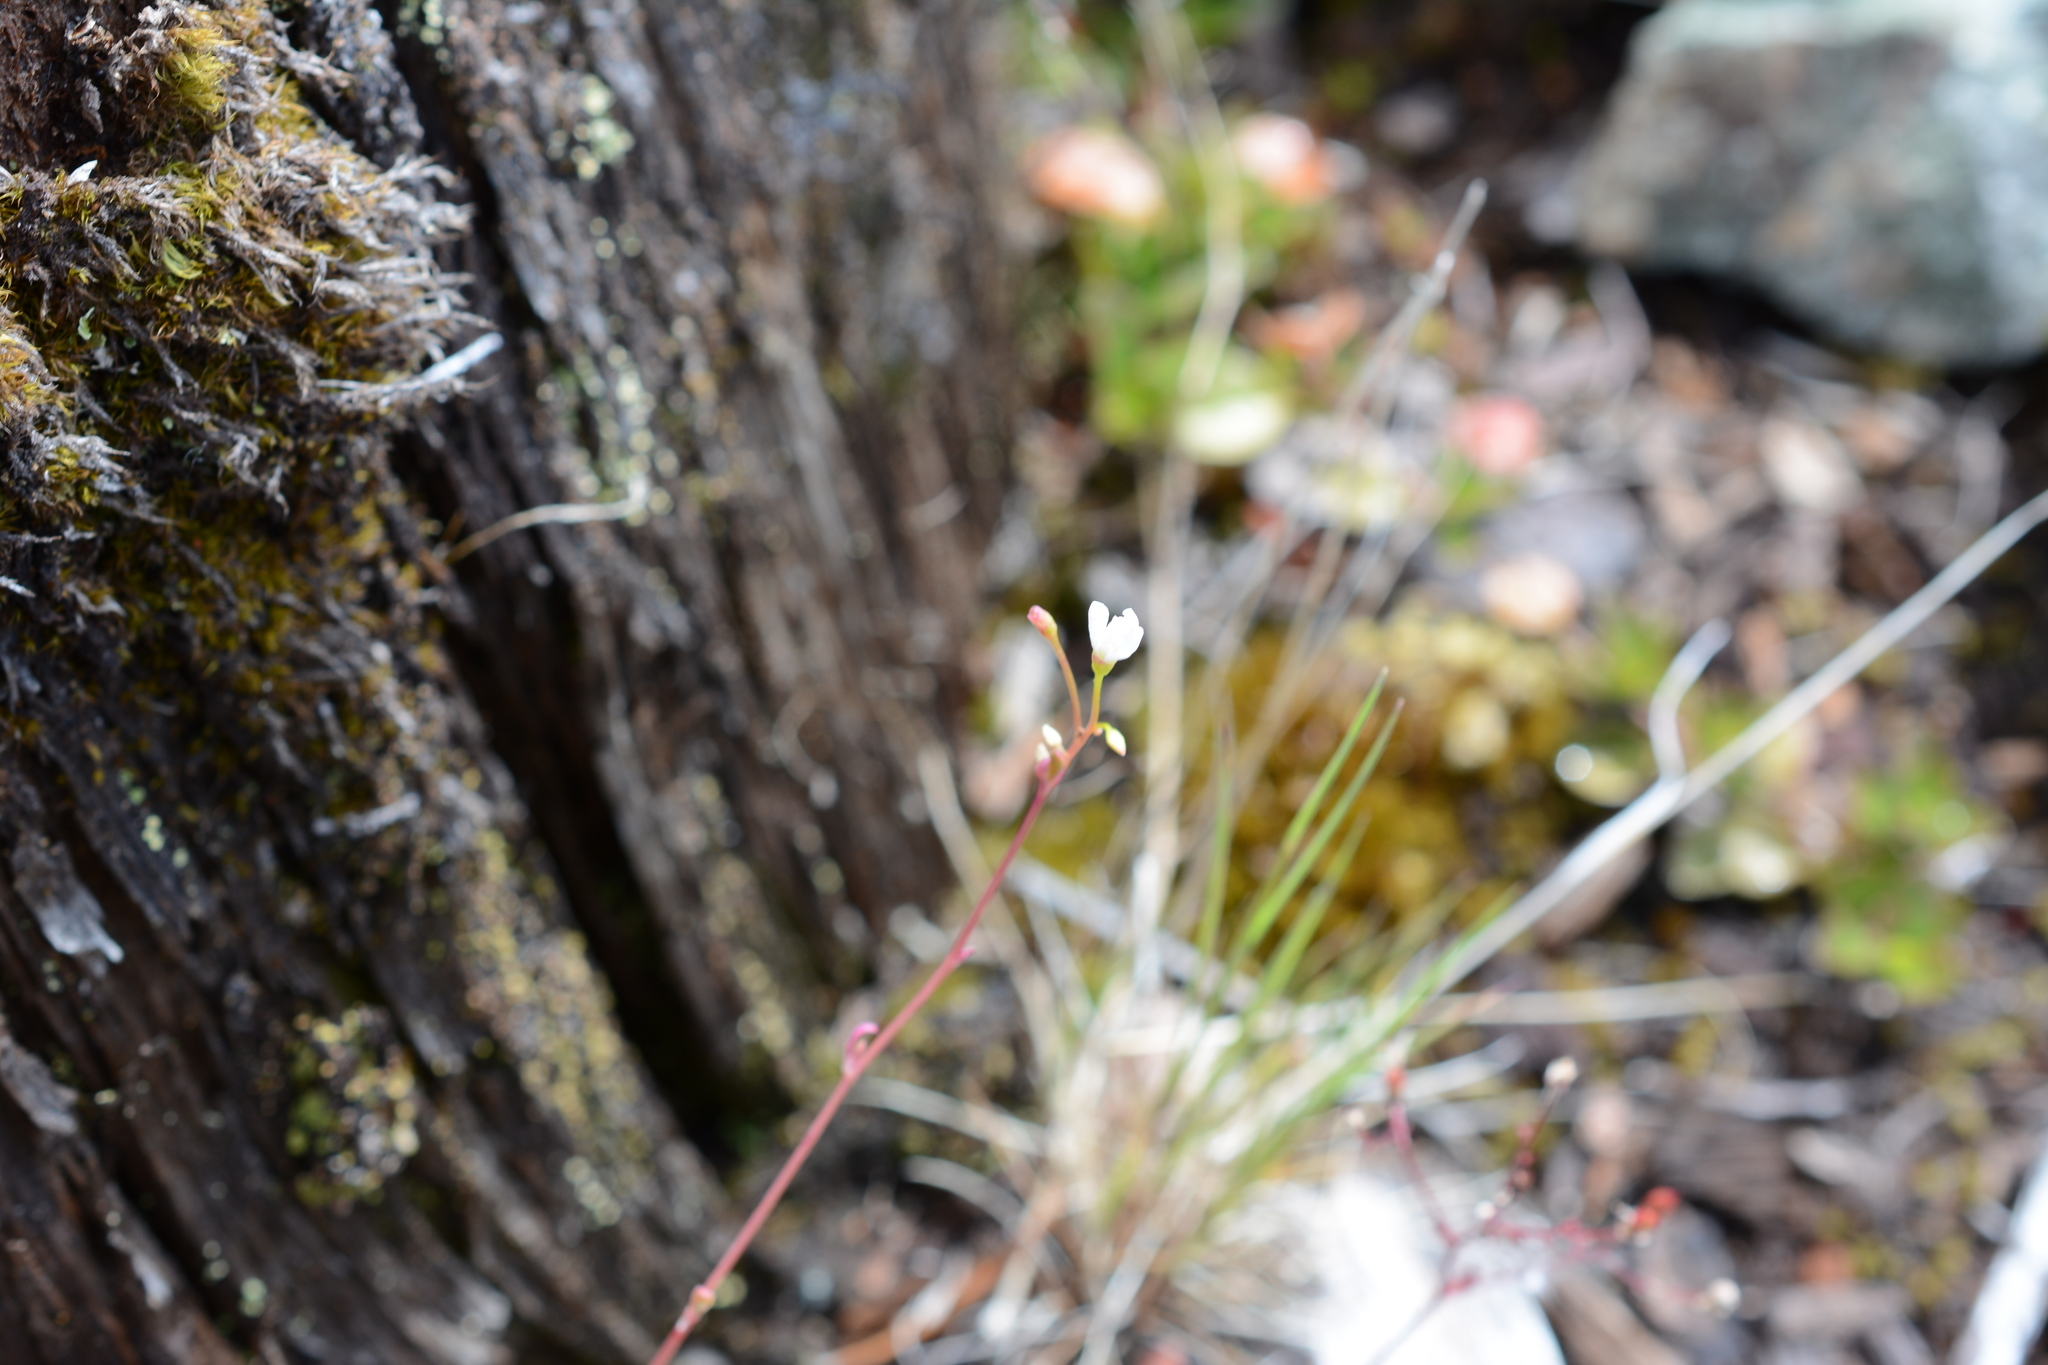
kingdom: Plantae
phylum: Tracheophyta
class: Magnoliopsida
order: Caryophyllales
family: Montiaceae
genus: Montia
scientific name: Montia parvifolia
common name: Small-leaved blinks
